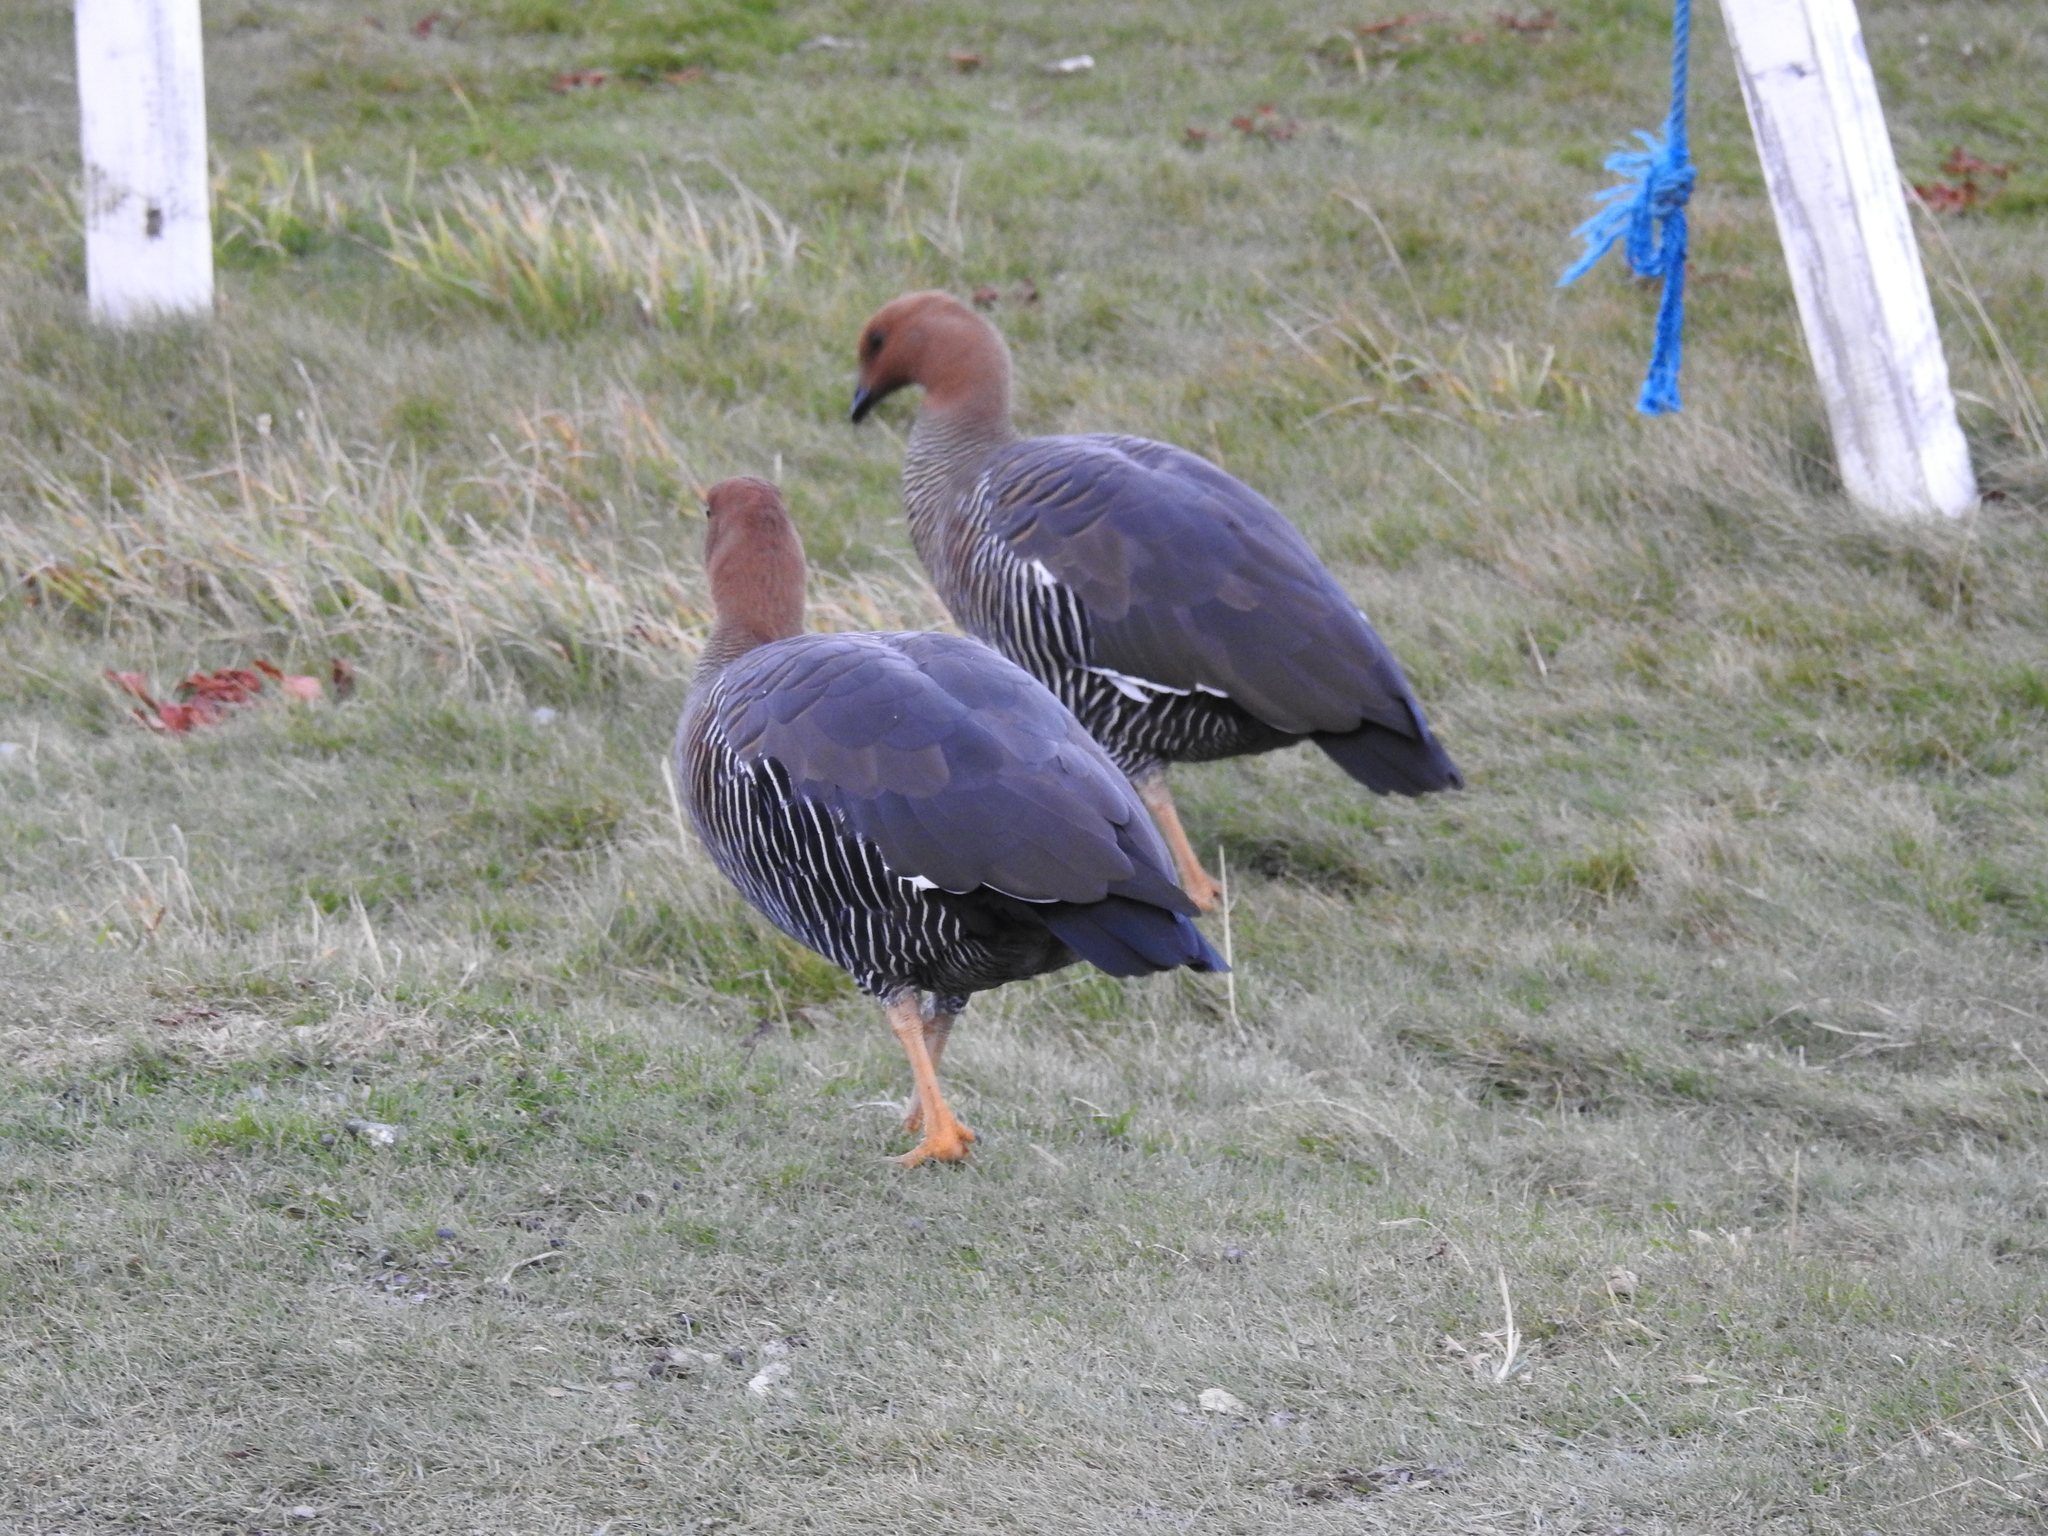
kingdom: Animalia
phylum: Chordata
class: Aves
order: Anseriformes
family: Anatidae
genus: Chloephaga
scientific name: Chloephaga picta
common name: Upland goose
